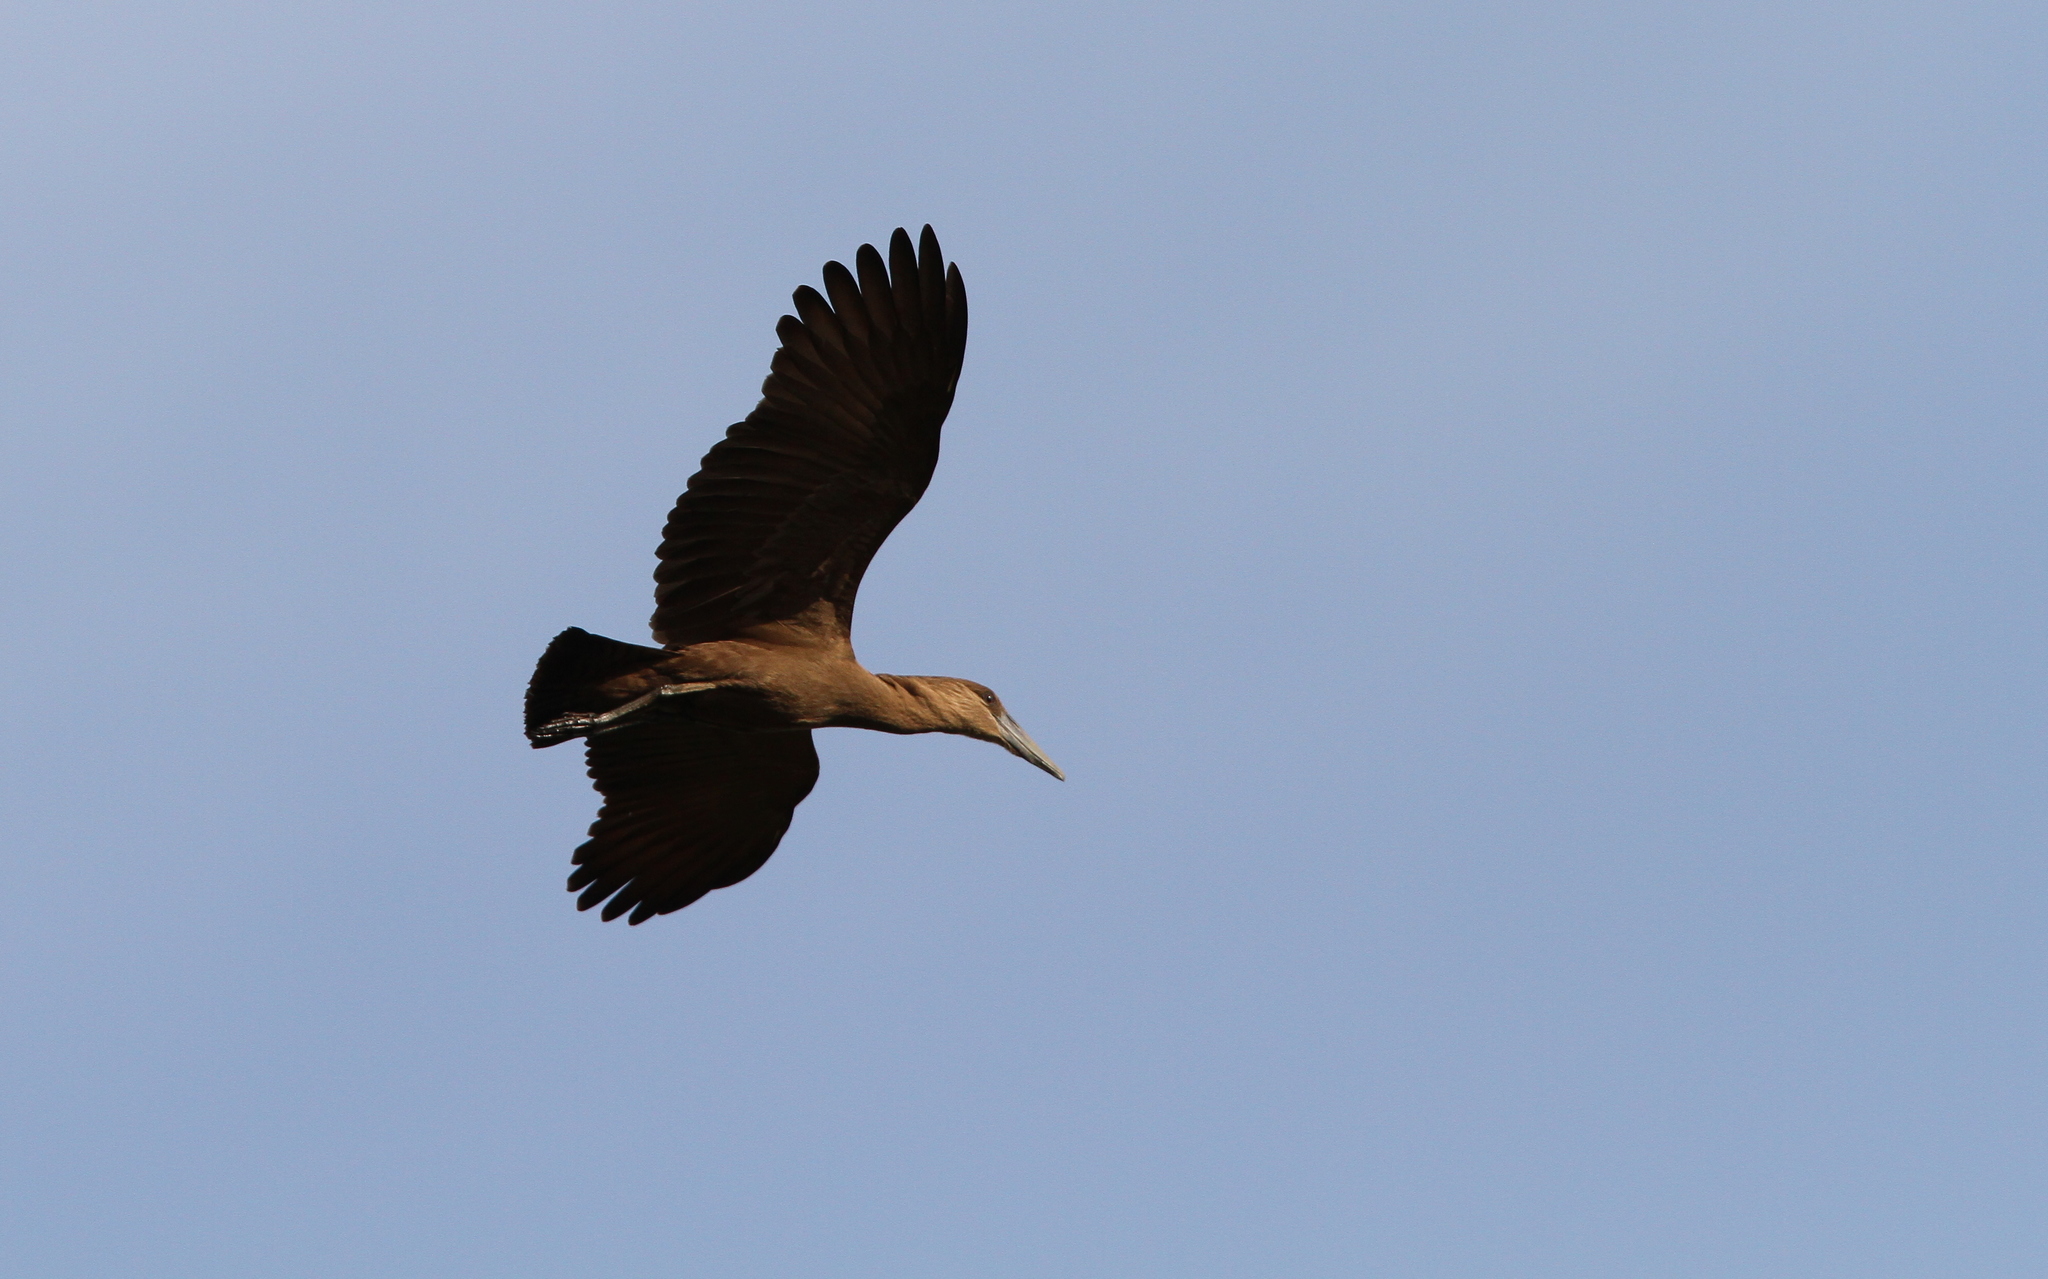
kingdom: Animalia
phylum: Chordata
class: Aves
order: Pelecaniformes
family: Scopidae
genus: Scopus
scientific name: Scopus umbretta
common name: Hamerkop
